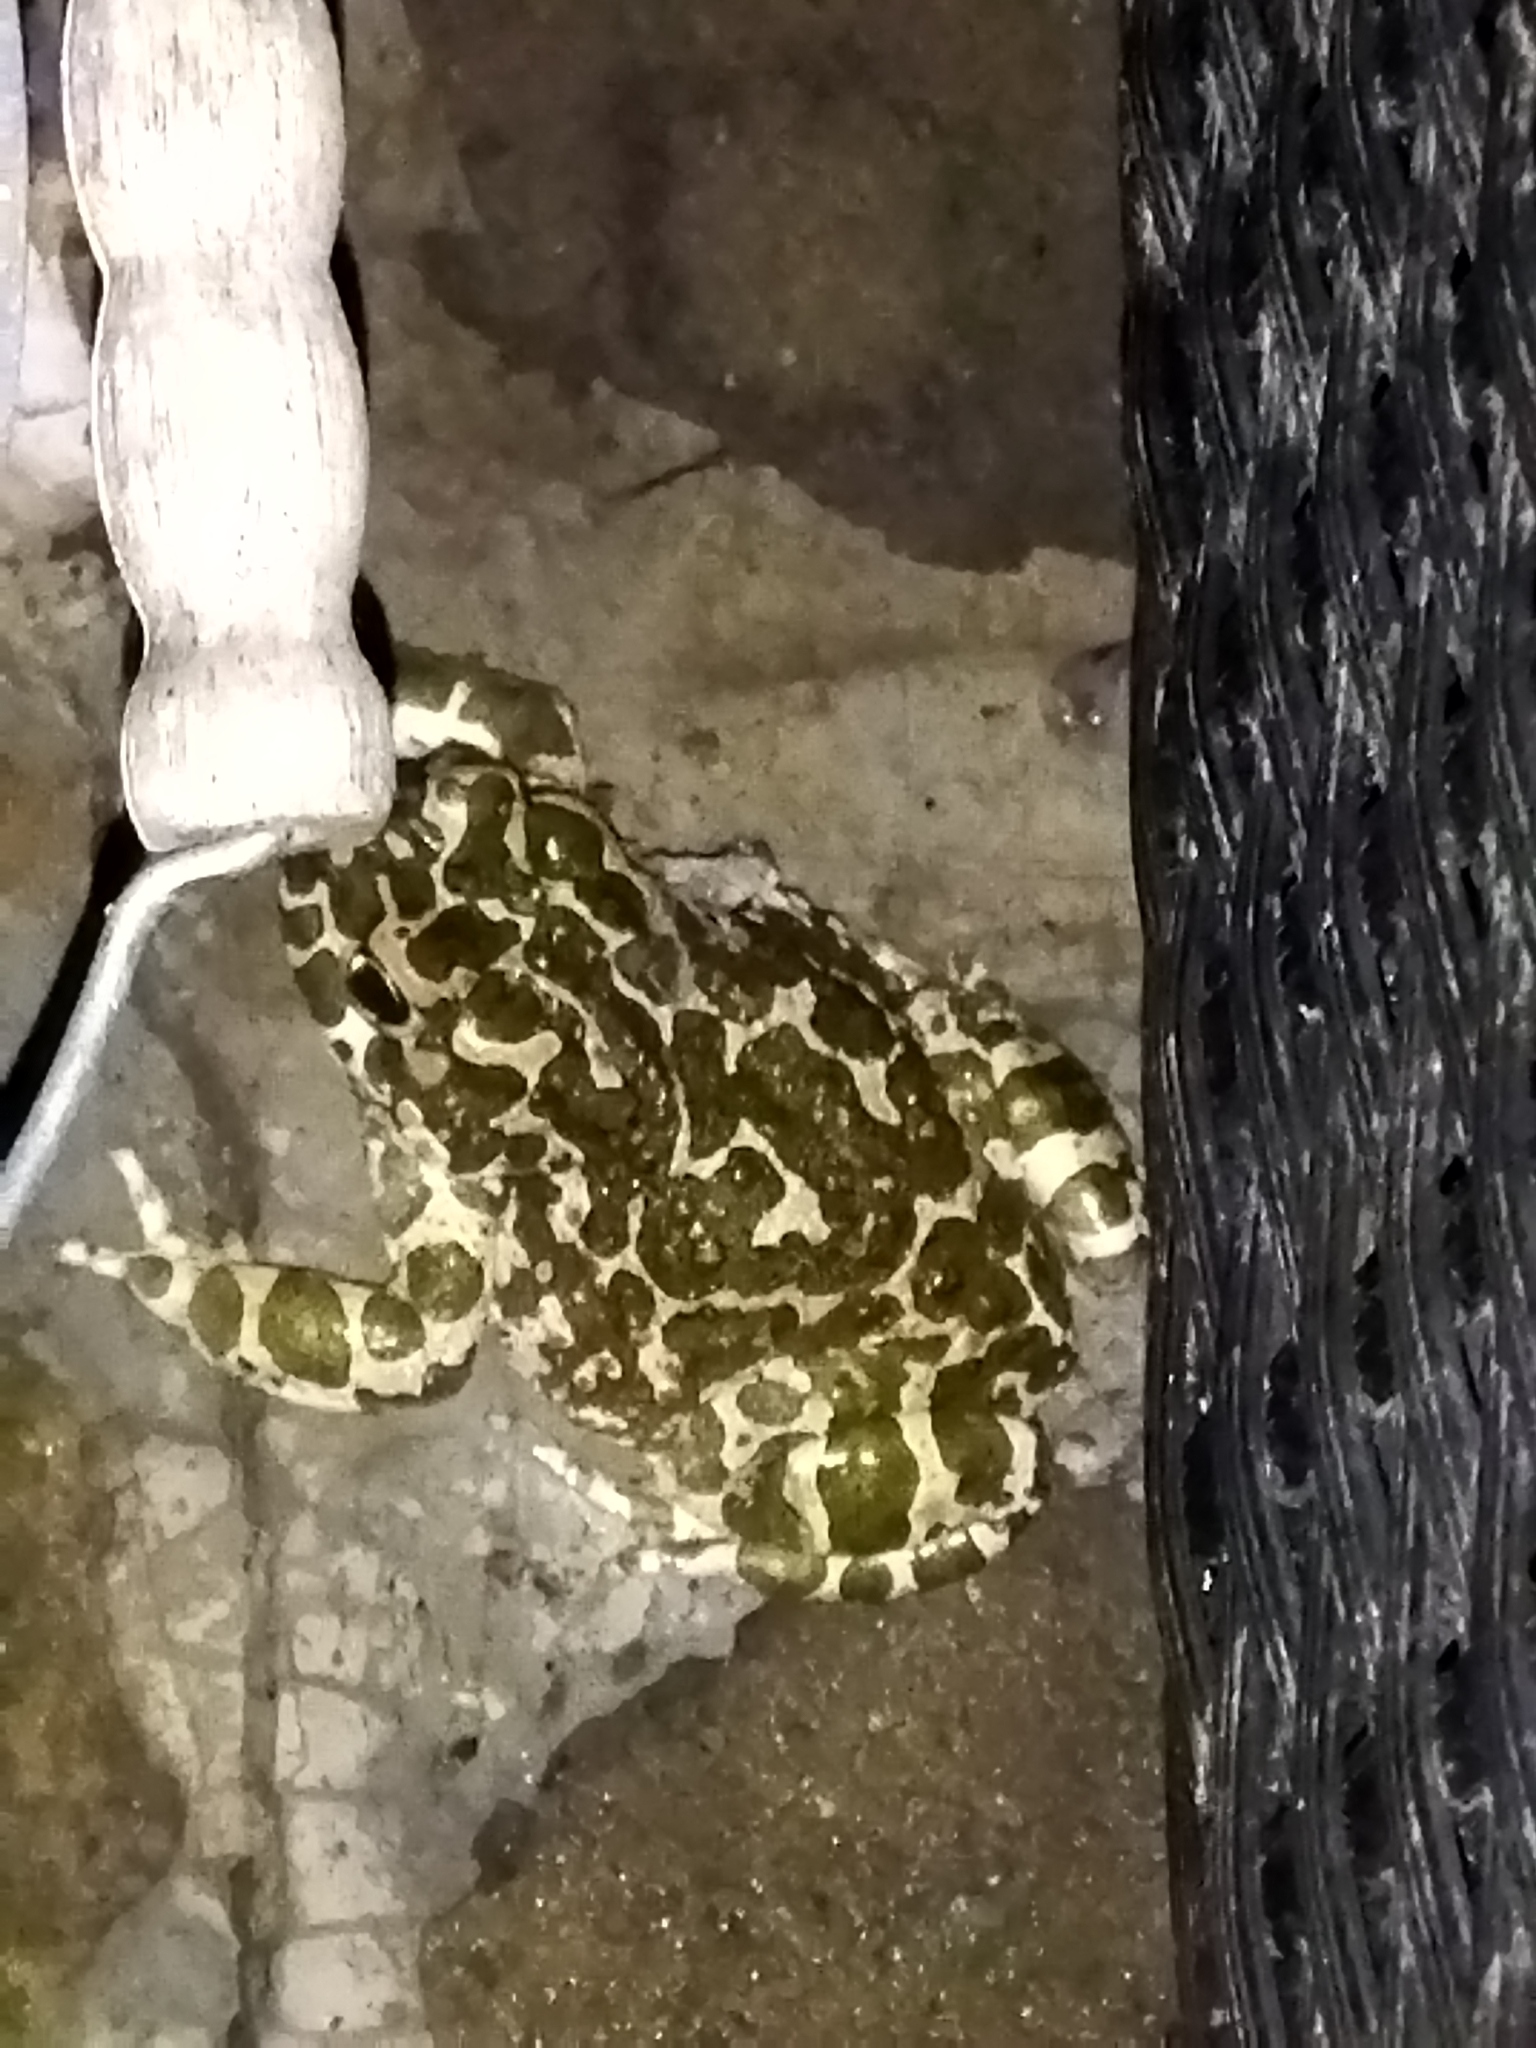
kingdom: Animalia
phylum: Chordata
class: Amphibia
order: Anura
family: Bufonidae
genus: Bufotes
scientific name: Bufotes viridis
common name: European green toad
